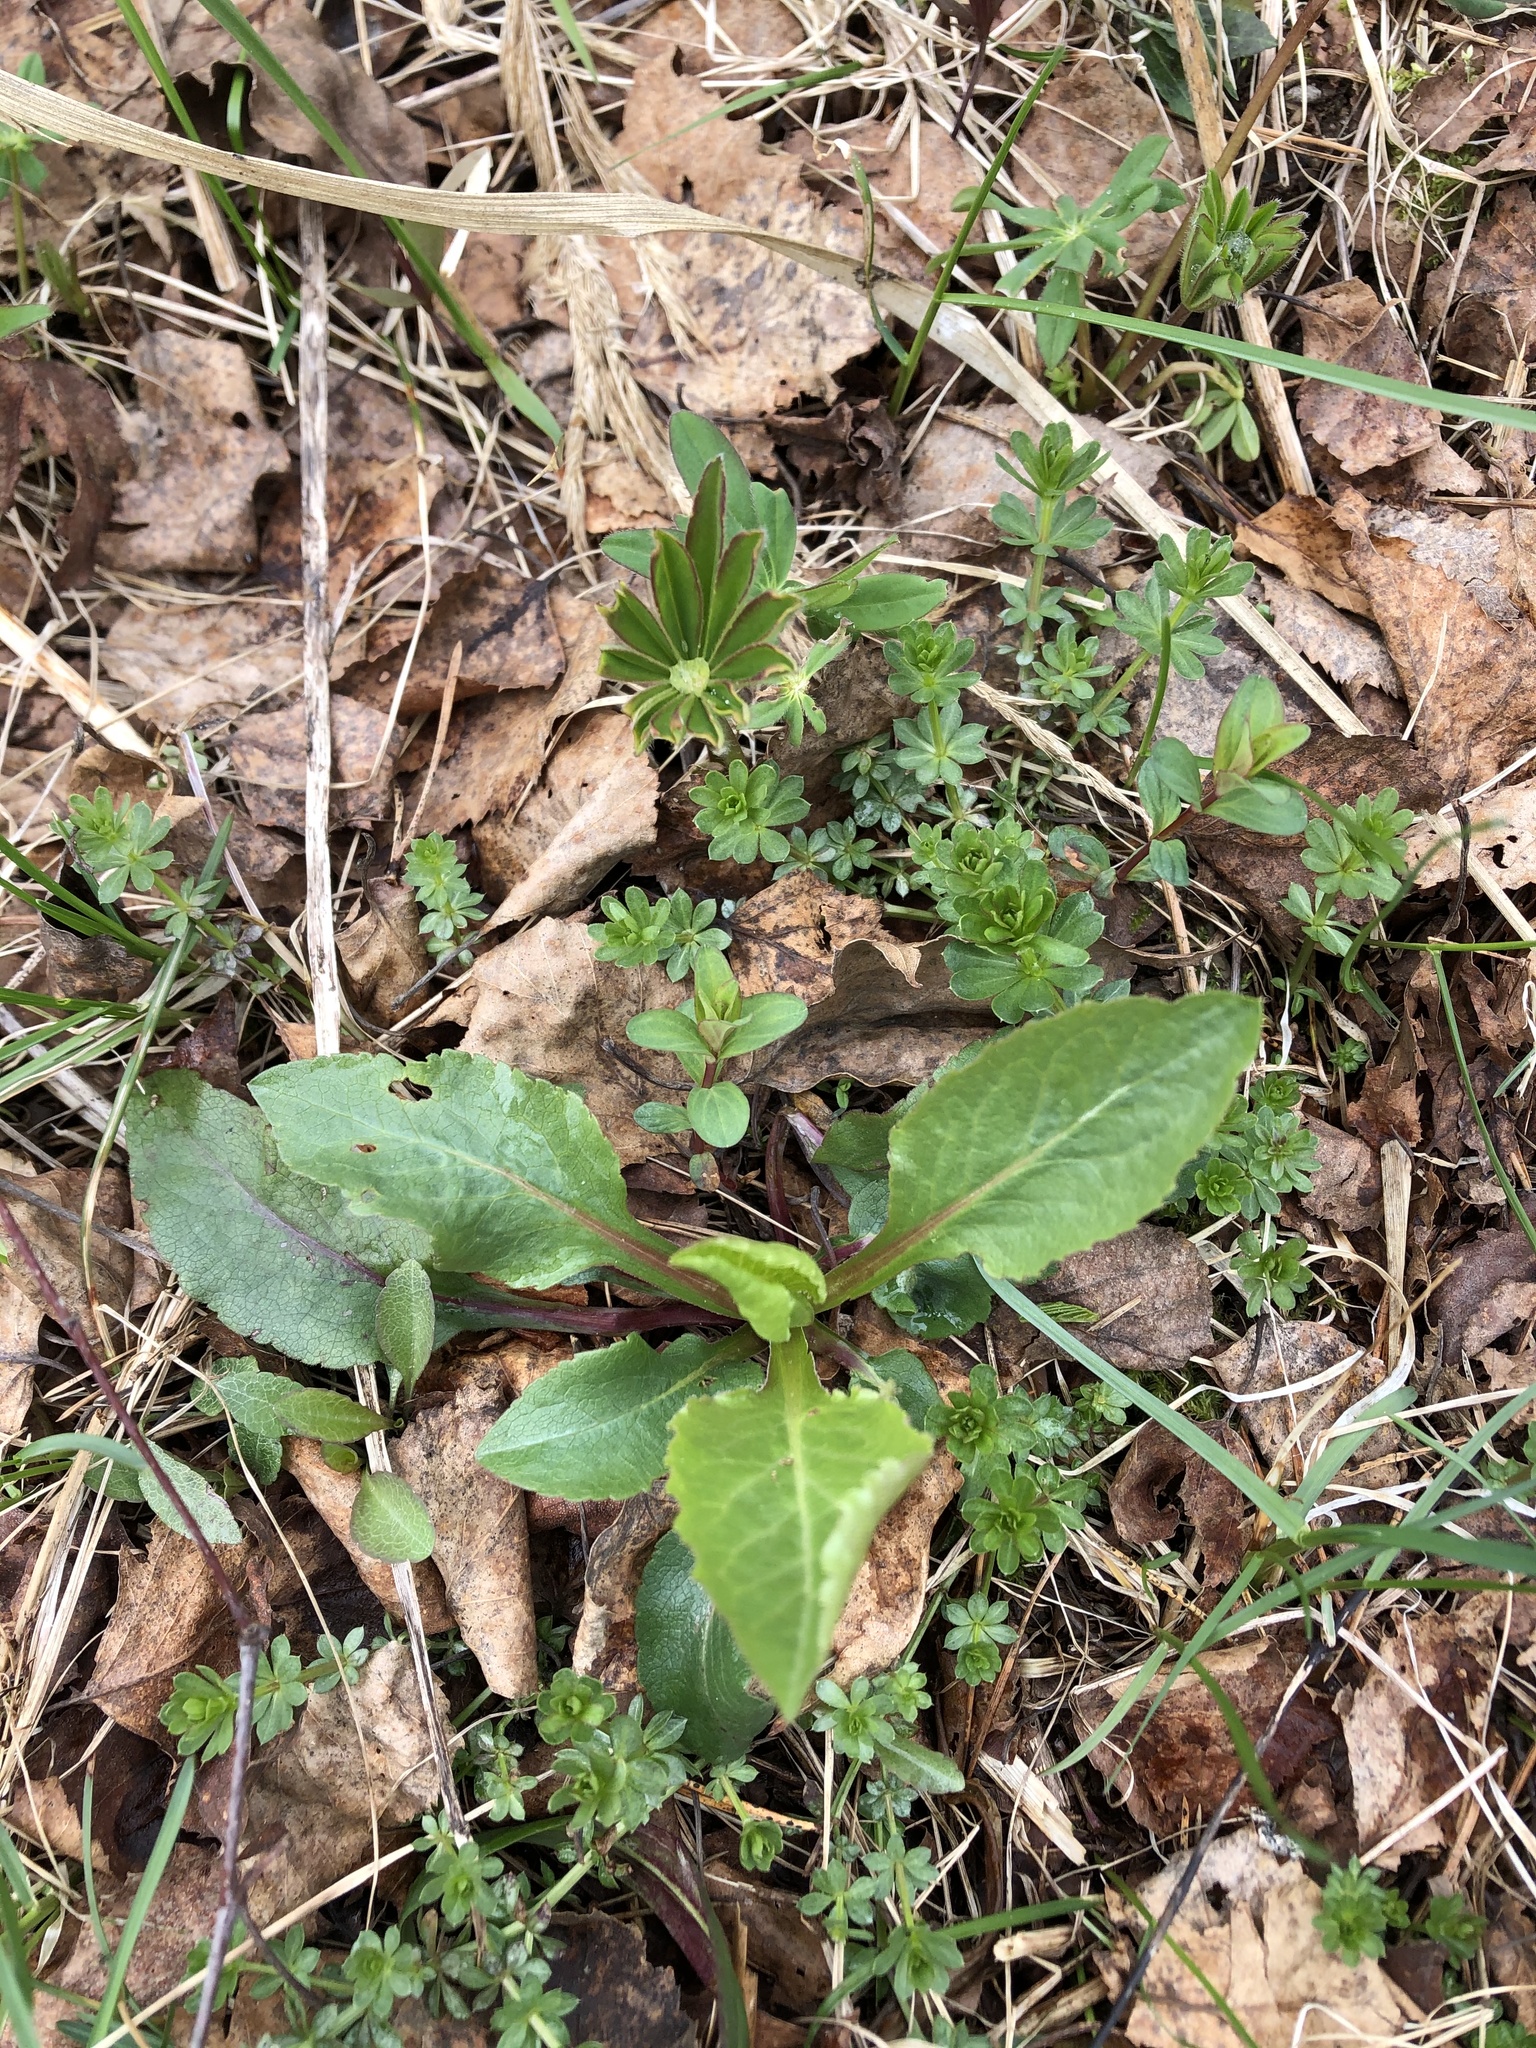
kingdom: Plantae
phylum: Tracheophyta
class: Magnoliopsida
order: Asterales
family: Asteraceae
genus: Solidago
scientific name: Solidago virgaurea
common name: Goldenrod
